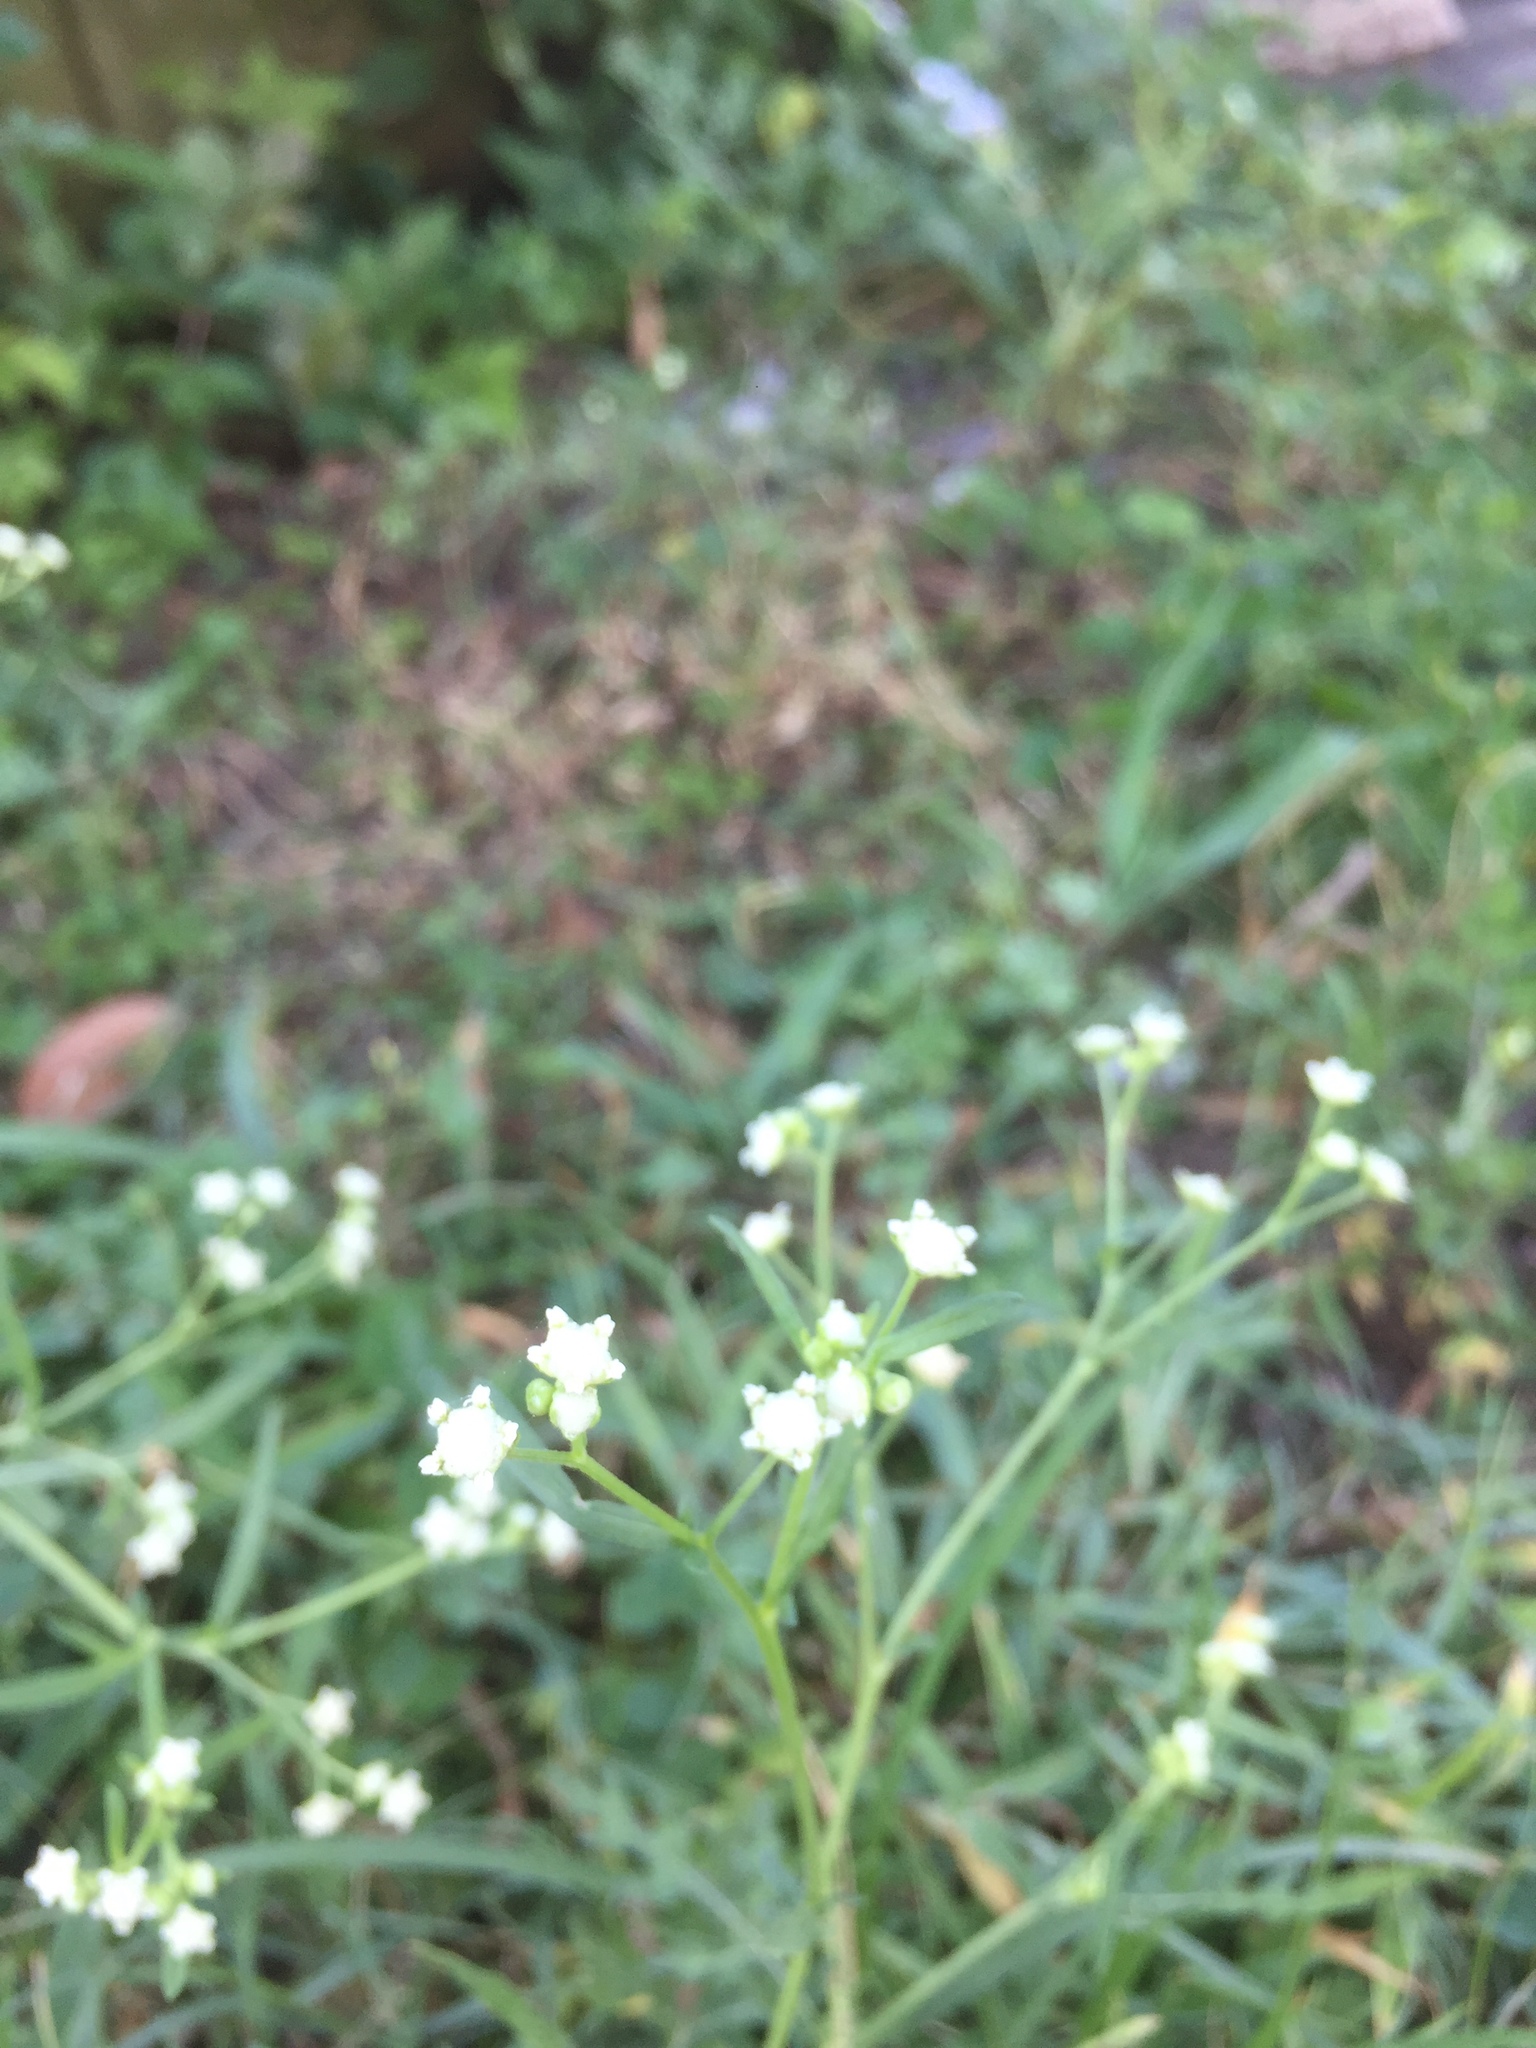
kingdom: Plantae
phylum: Tracheophyta
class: Magnoliopsida
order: Asterales
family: Asteraceae
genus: Parthenium
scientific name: Parthenium hysterophorus
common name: Santa maria feverfew
